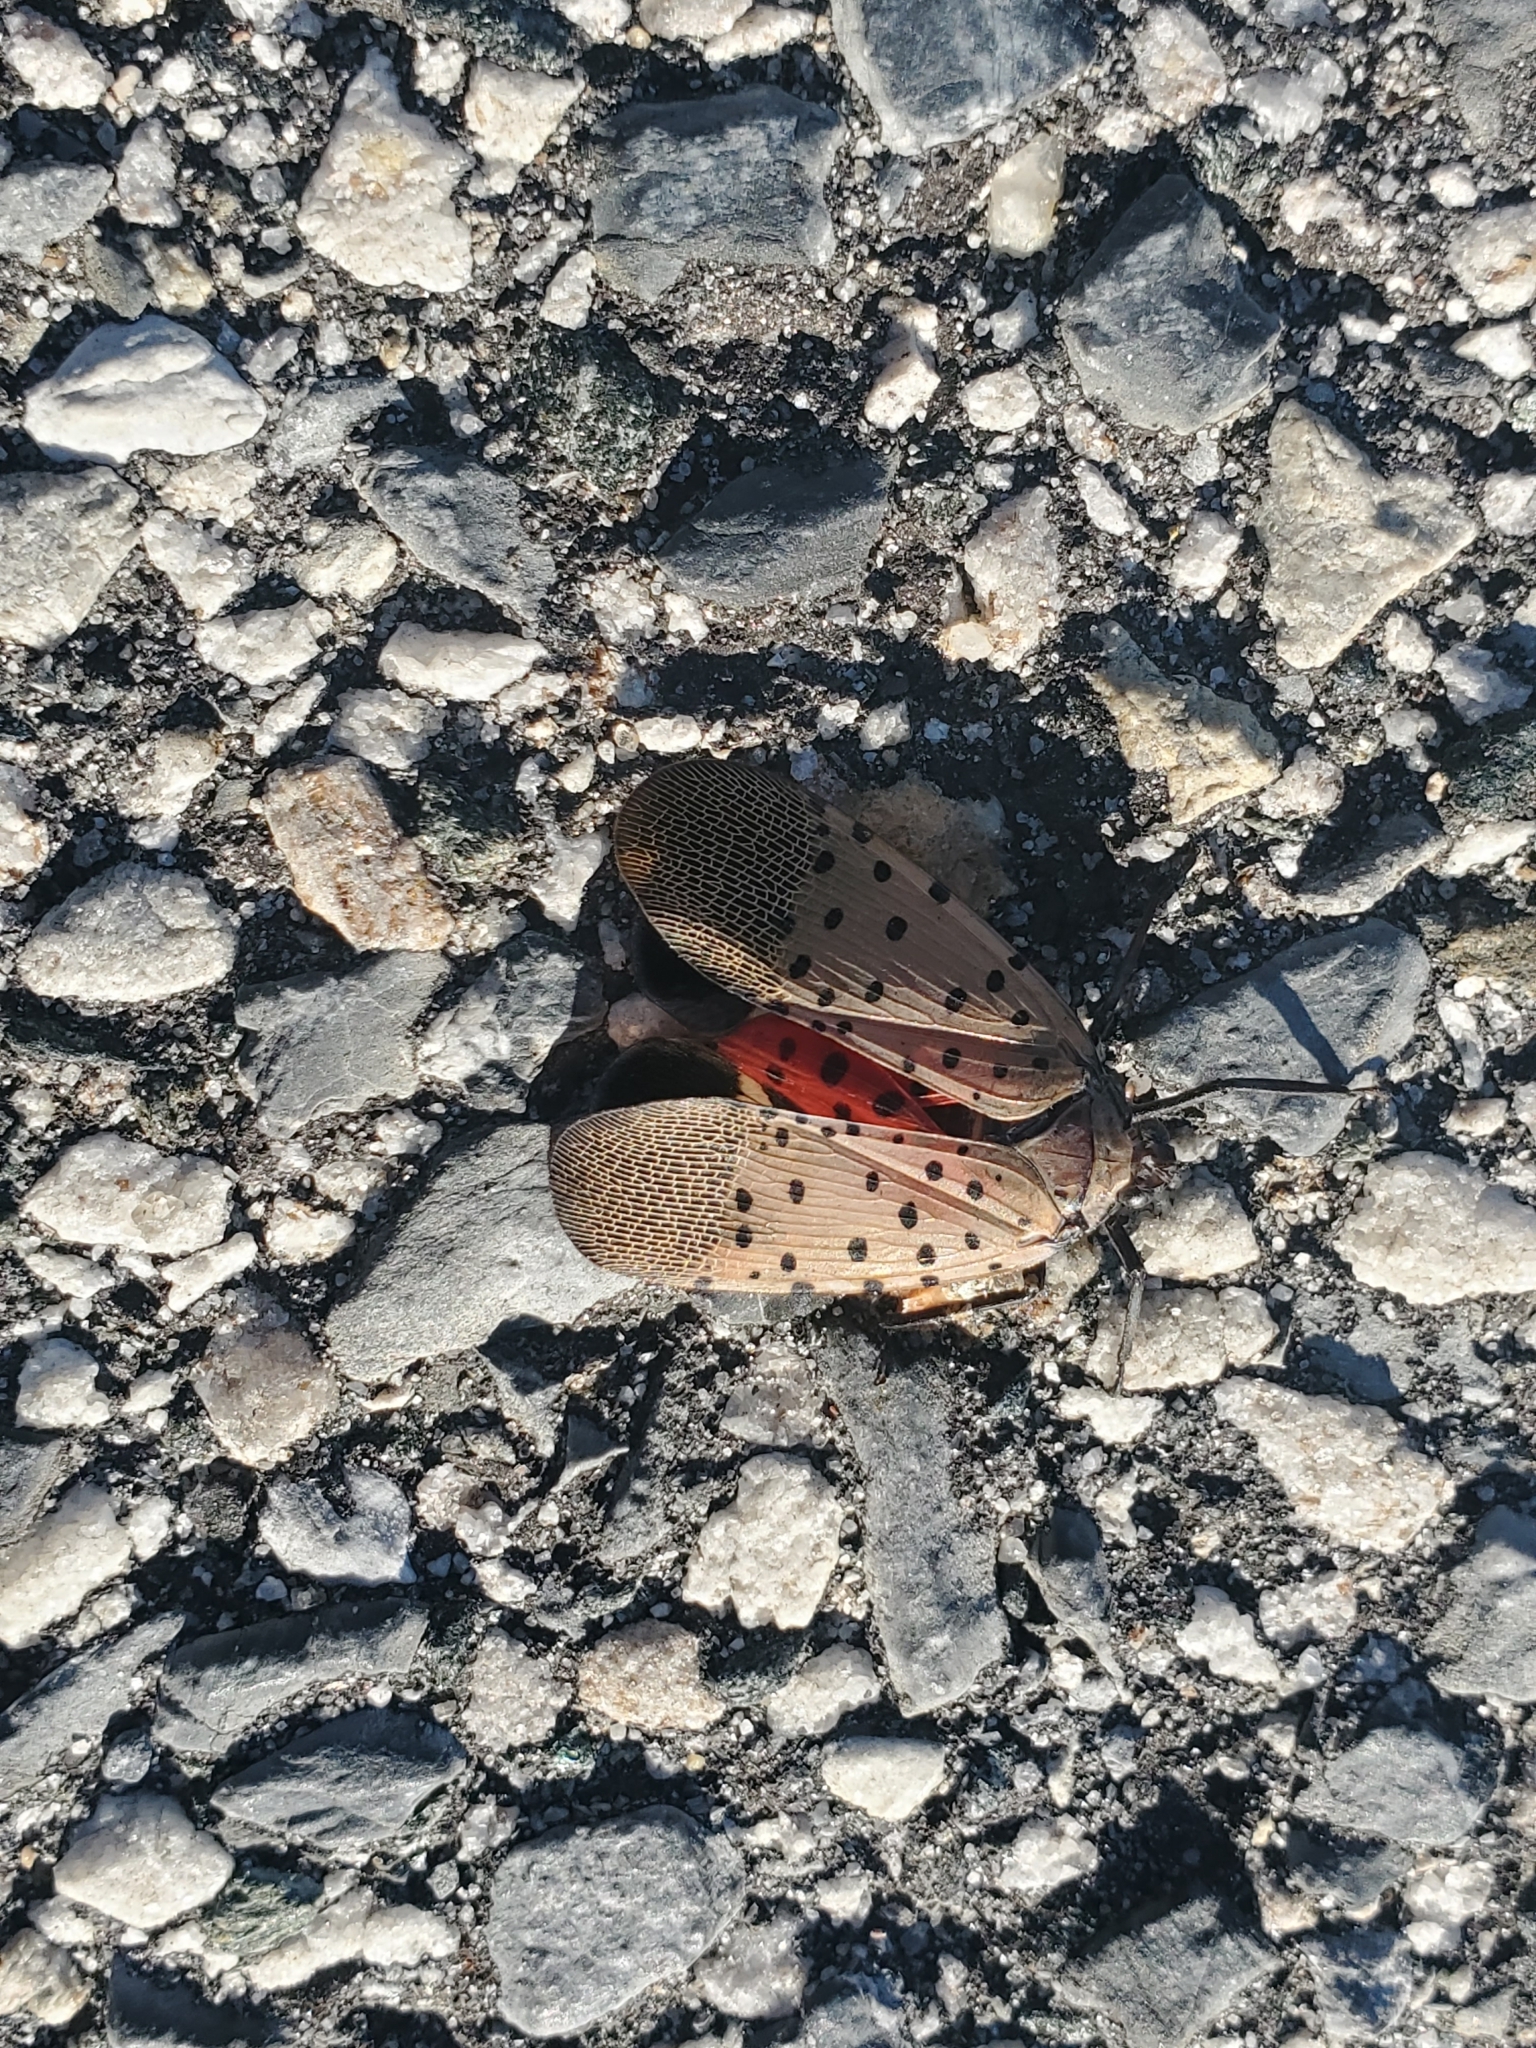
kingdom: Animalia
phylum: Arthropoda
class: Insecta
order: Hemiptera
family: Fulgoridae
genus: Lycorma
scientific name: Lycorma delicatula
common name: Spotted lanternfly
